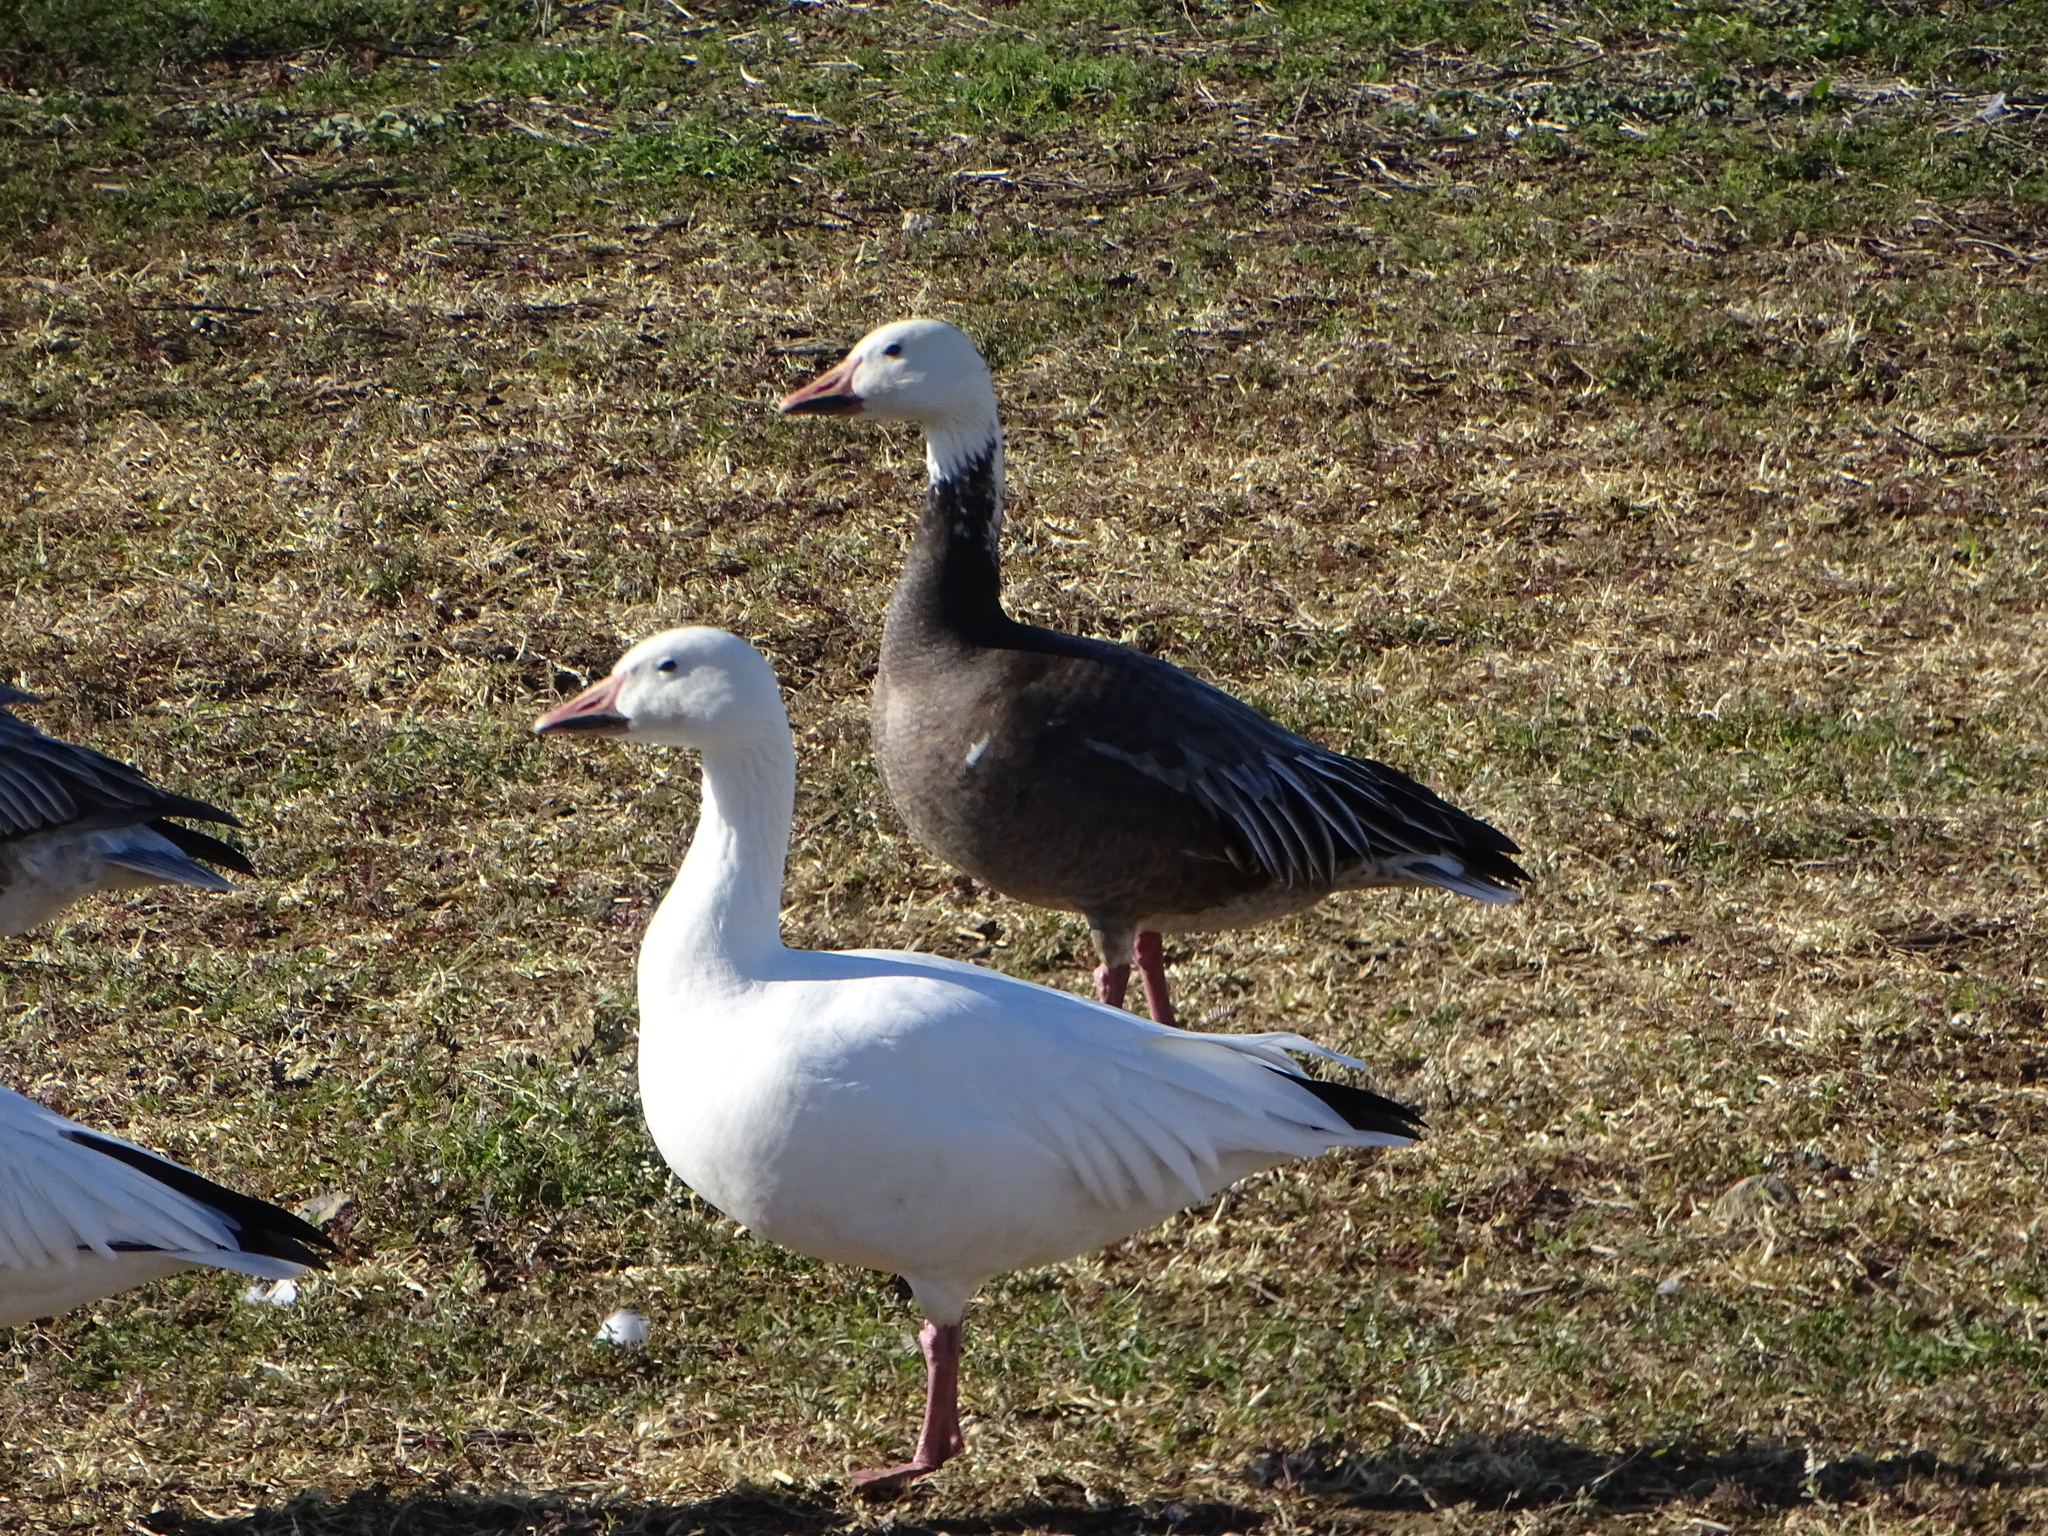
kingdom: Animalia
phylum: Chordata
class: Aves
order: Anseriformes
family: Anatidae
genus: Anser
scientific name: Anser caerulescens
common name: Snow goose
